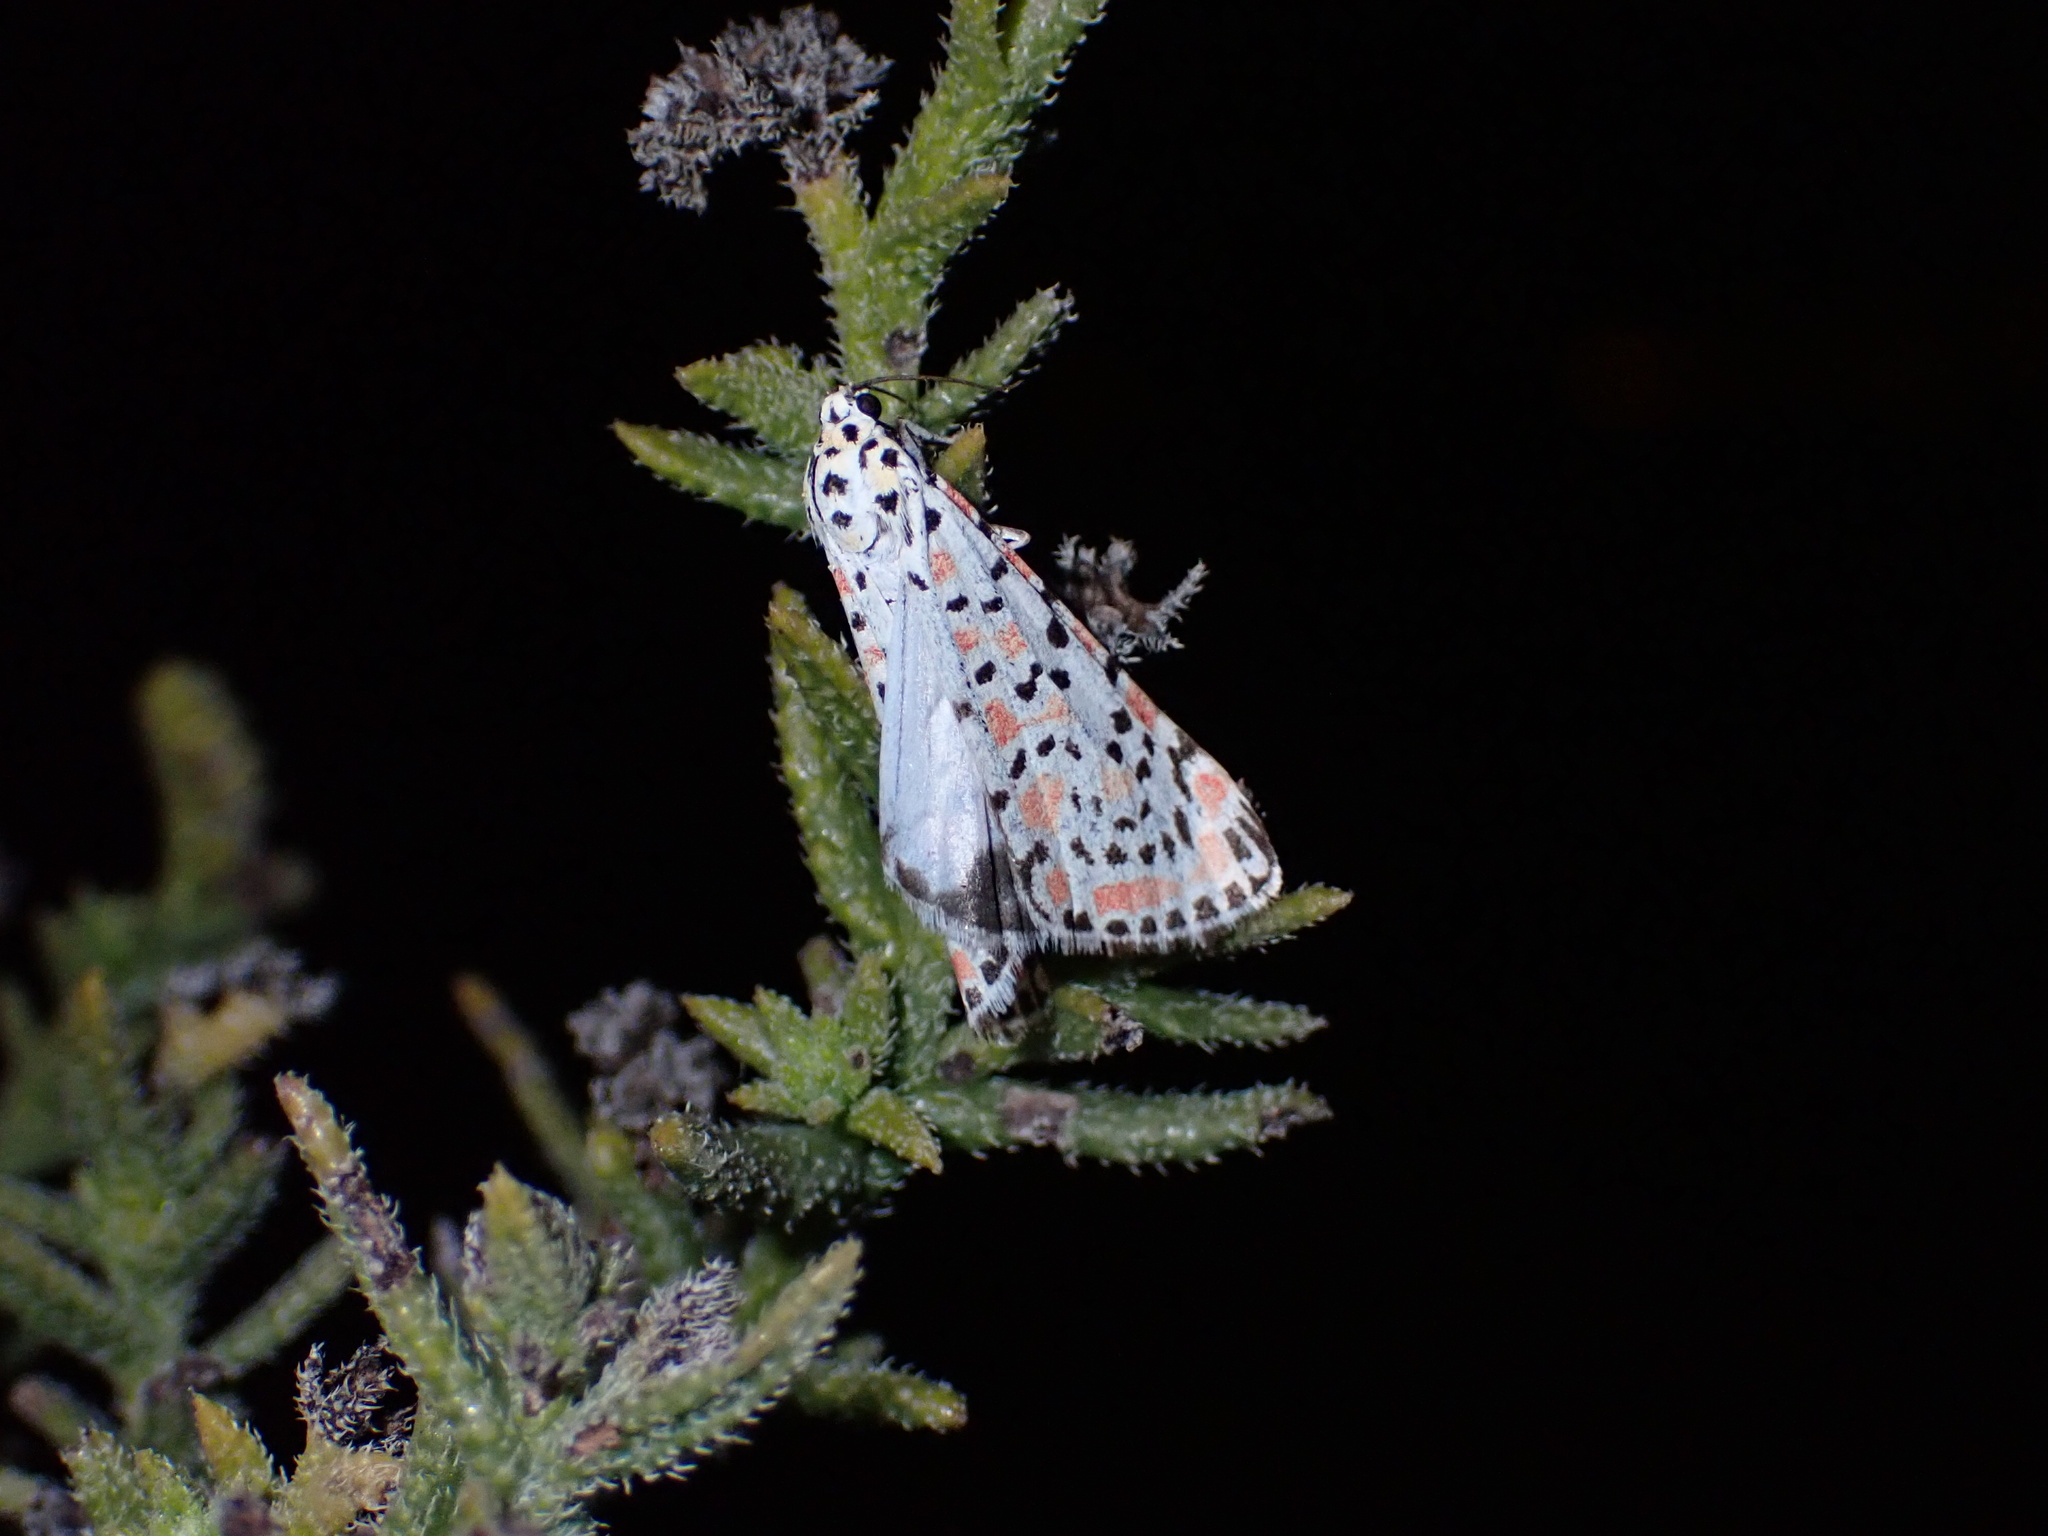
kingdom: Animalia
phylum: Arthropoda
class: Insecta
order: Lepidoptera
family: Erebidae
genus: Utetheisa
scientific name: Utetheisa pulchella
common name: Crimson speckled
